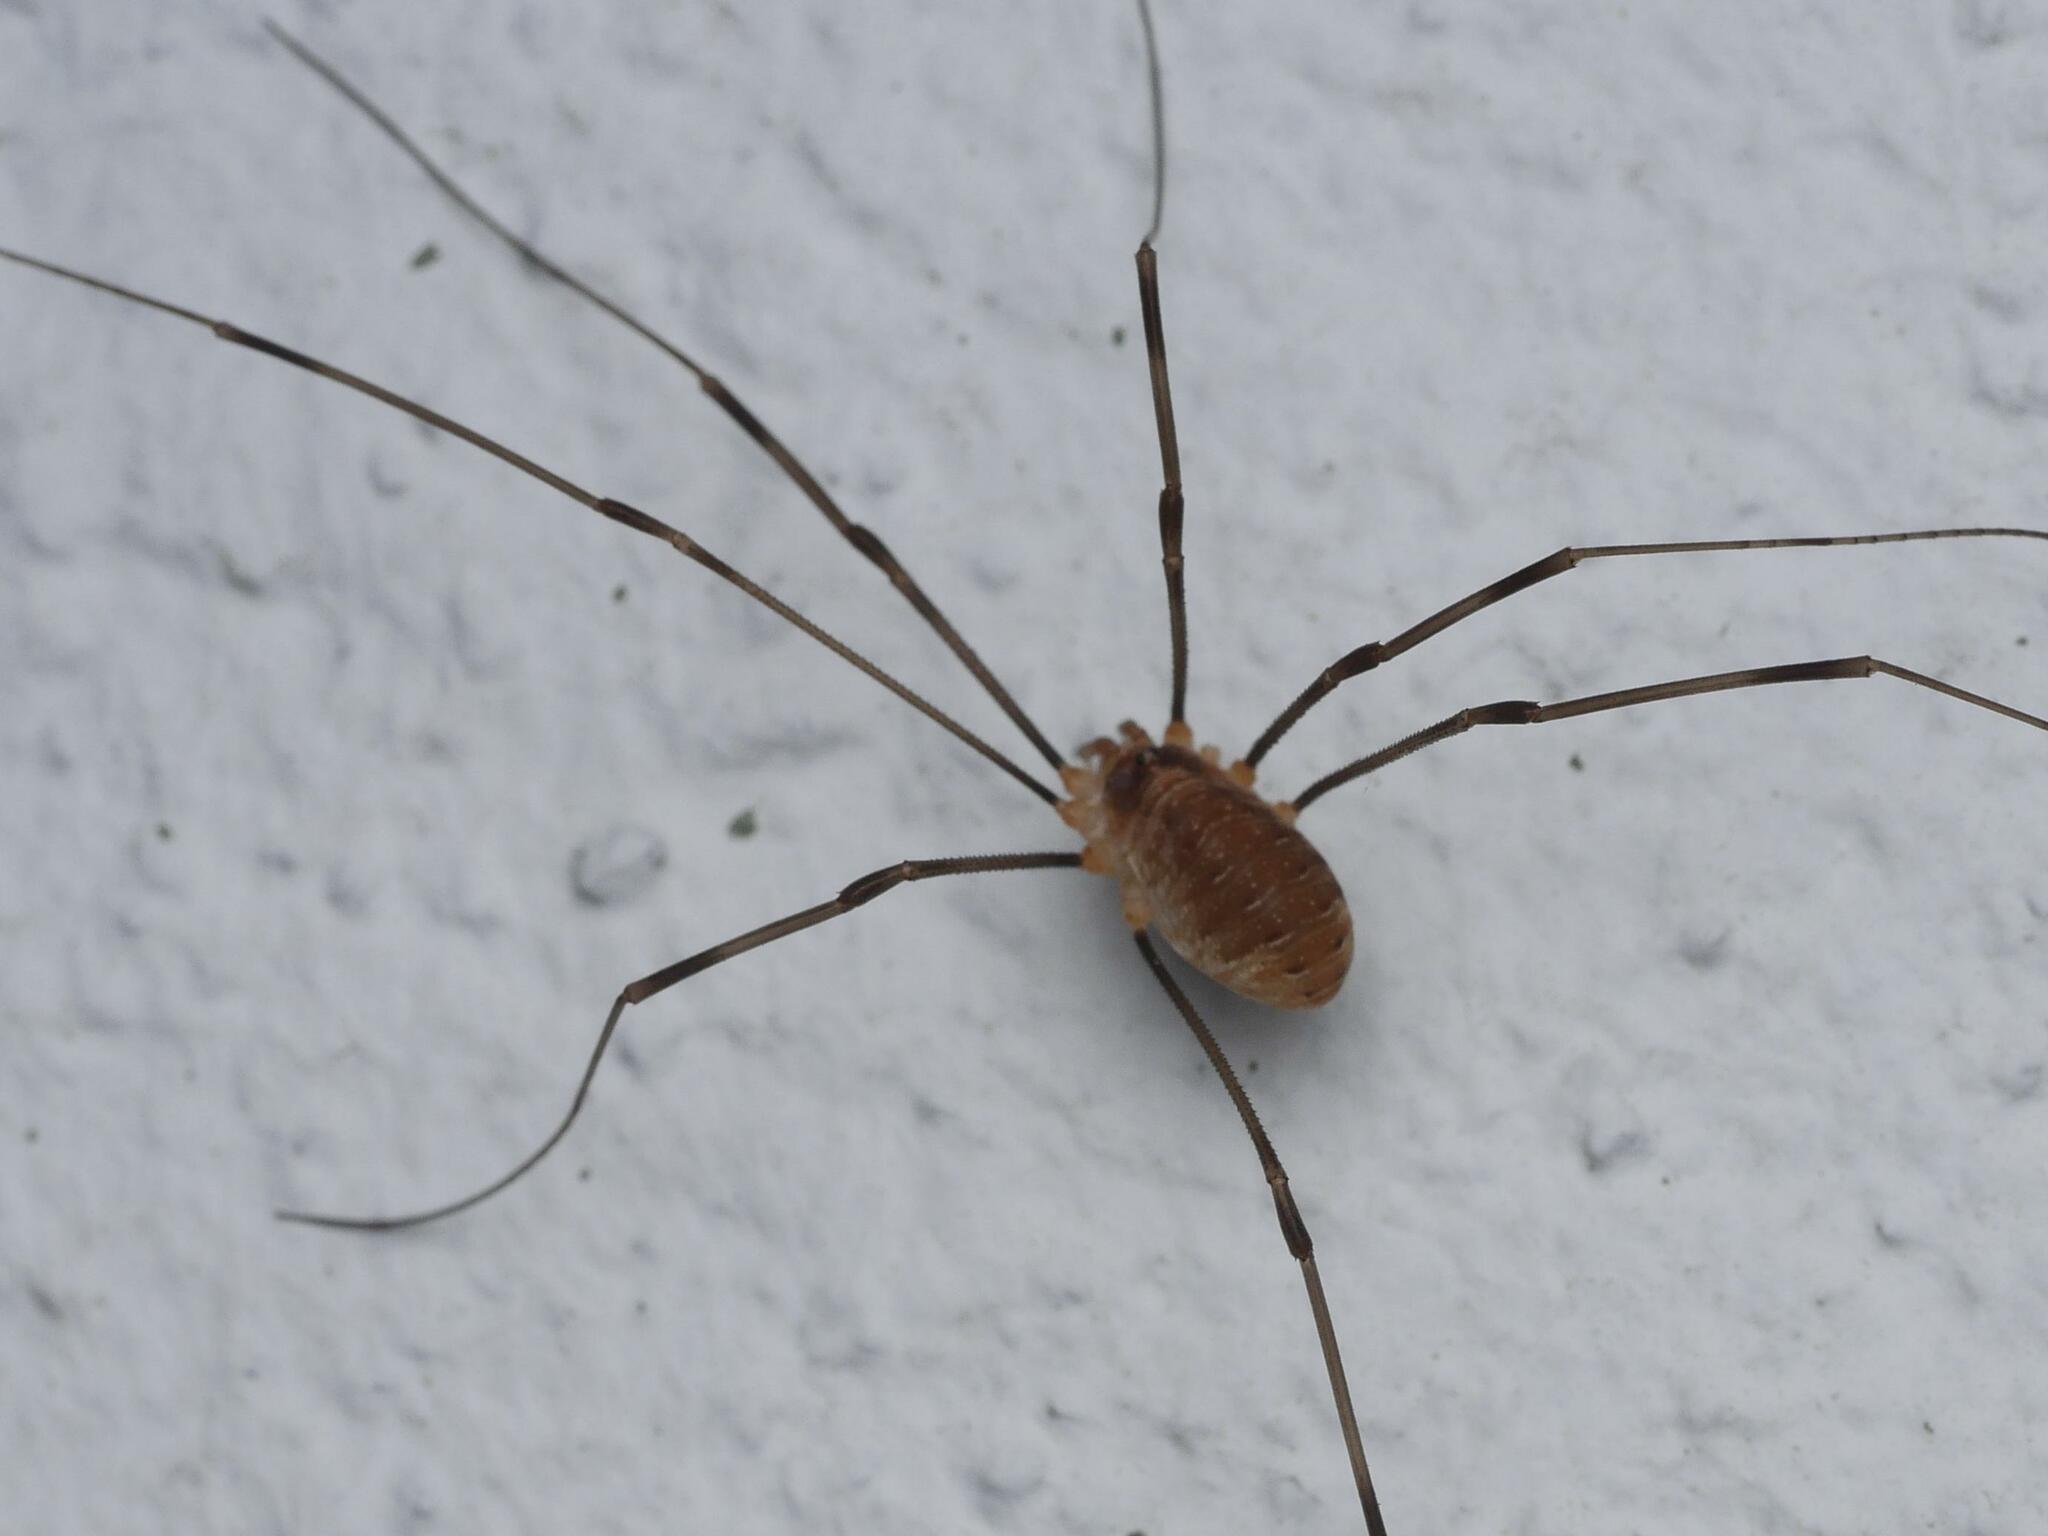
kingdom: Animalia
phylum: Arthropoda
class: Arachnida
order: Opiliones
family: Phalangiidae
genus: Opilio
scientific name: Opilio canestrinii
